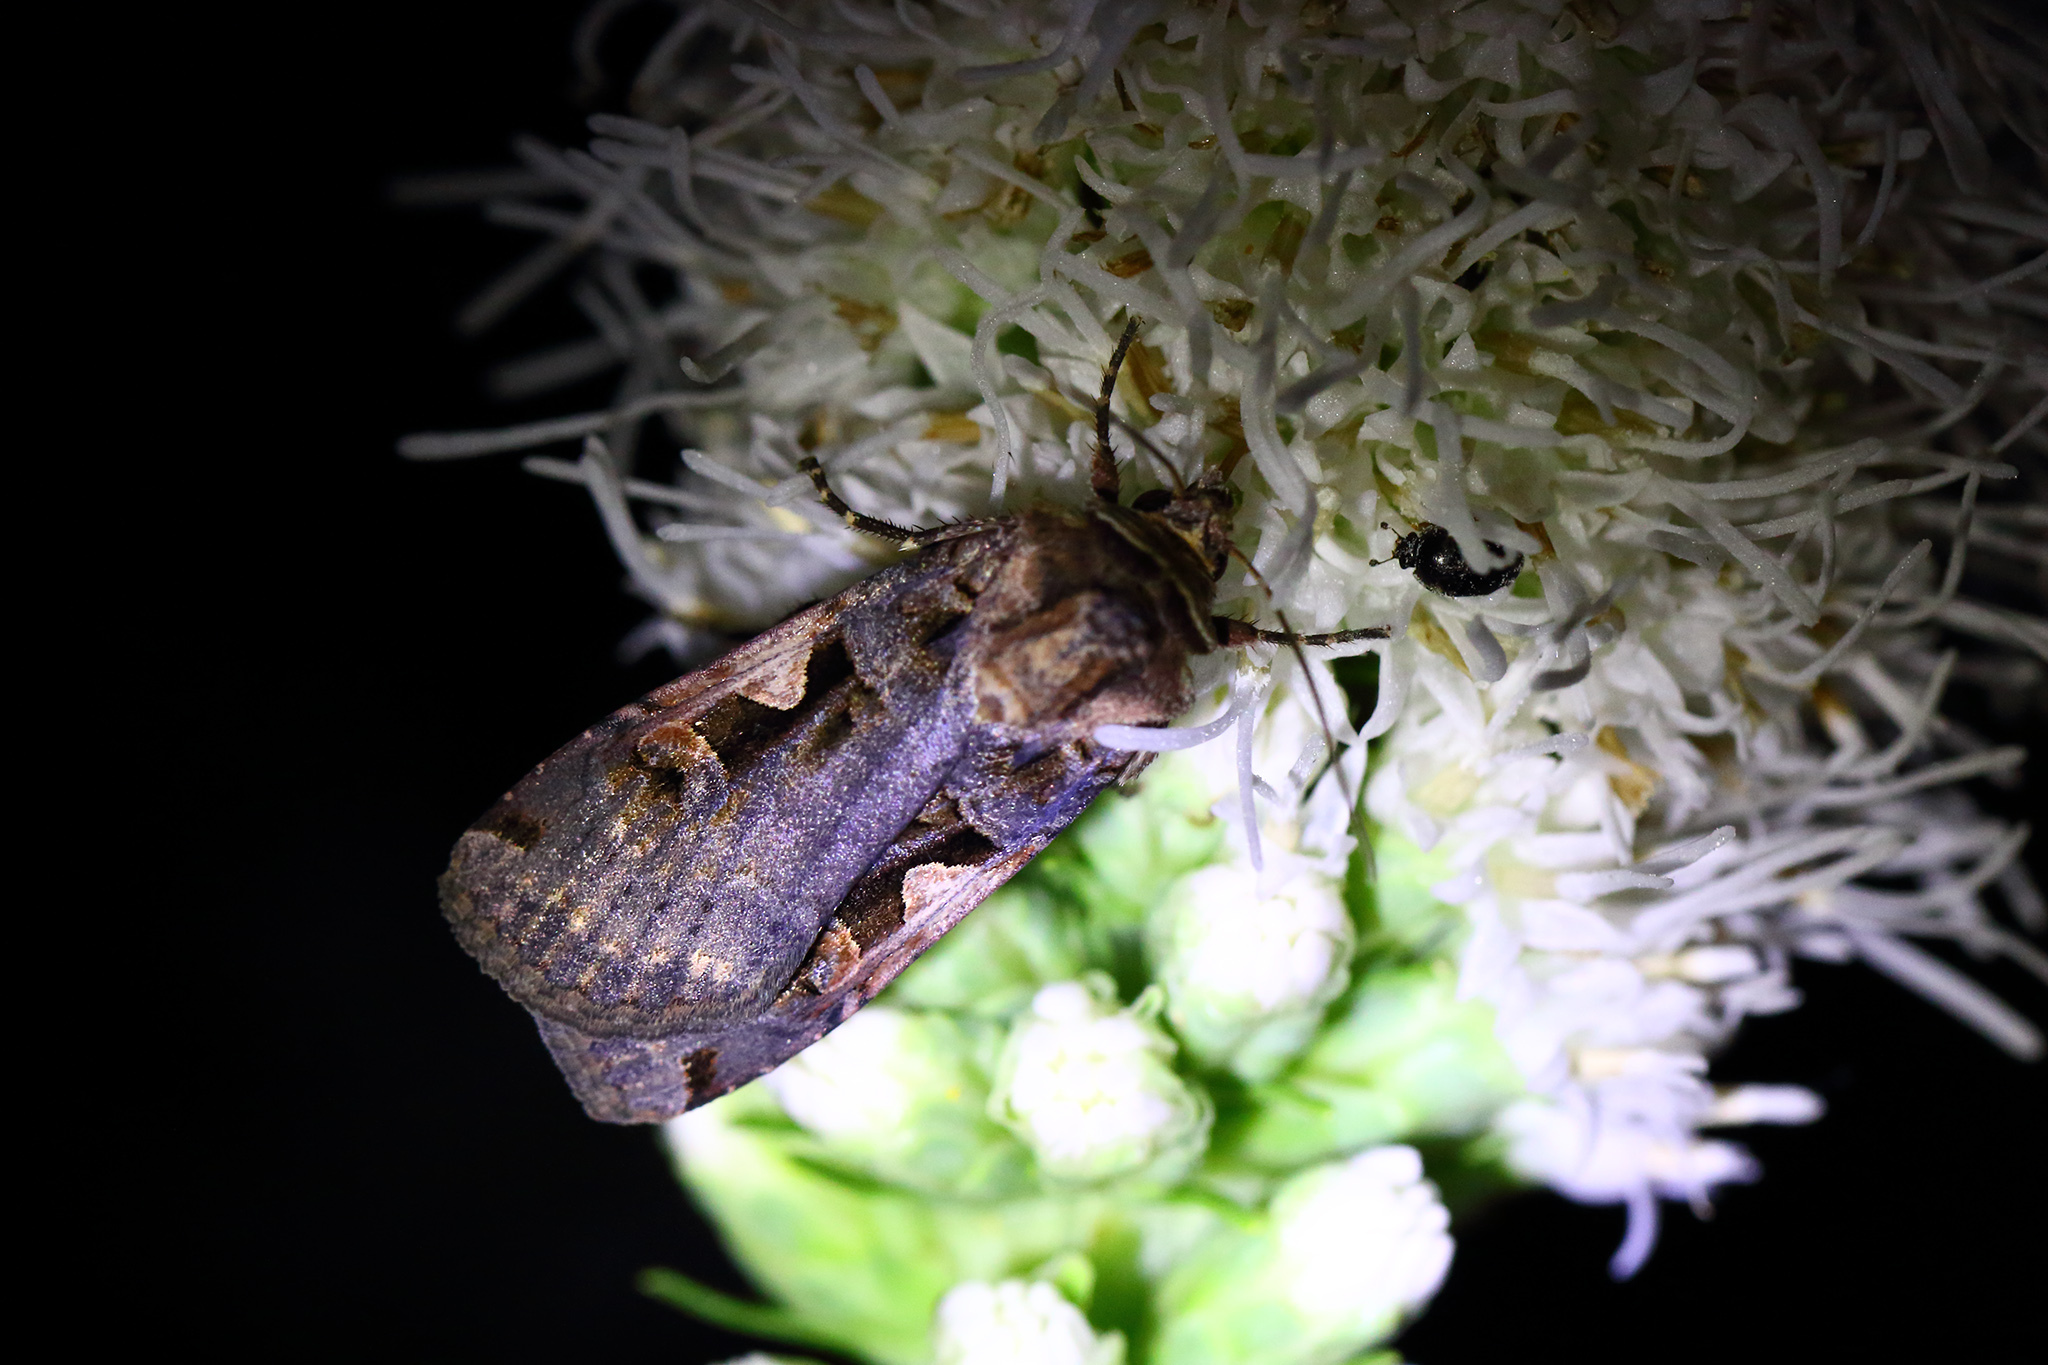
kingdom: Animalia
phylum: Arthropoda
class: Insecta
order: Lepidoptera
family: Noctuidae
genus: Xestia
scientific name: Xestia c-nigrum
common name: Setaceous hebrew character
